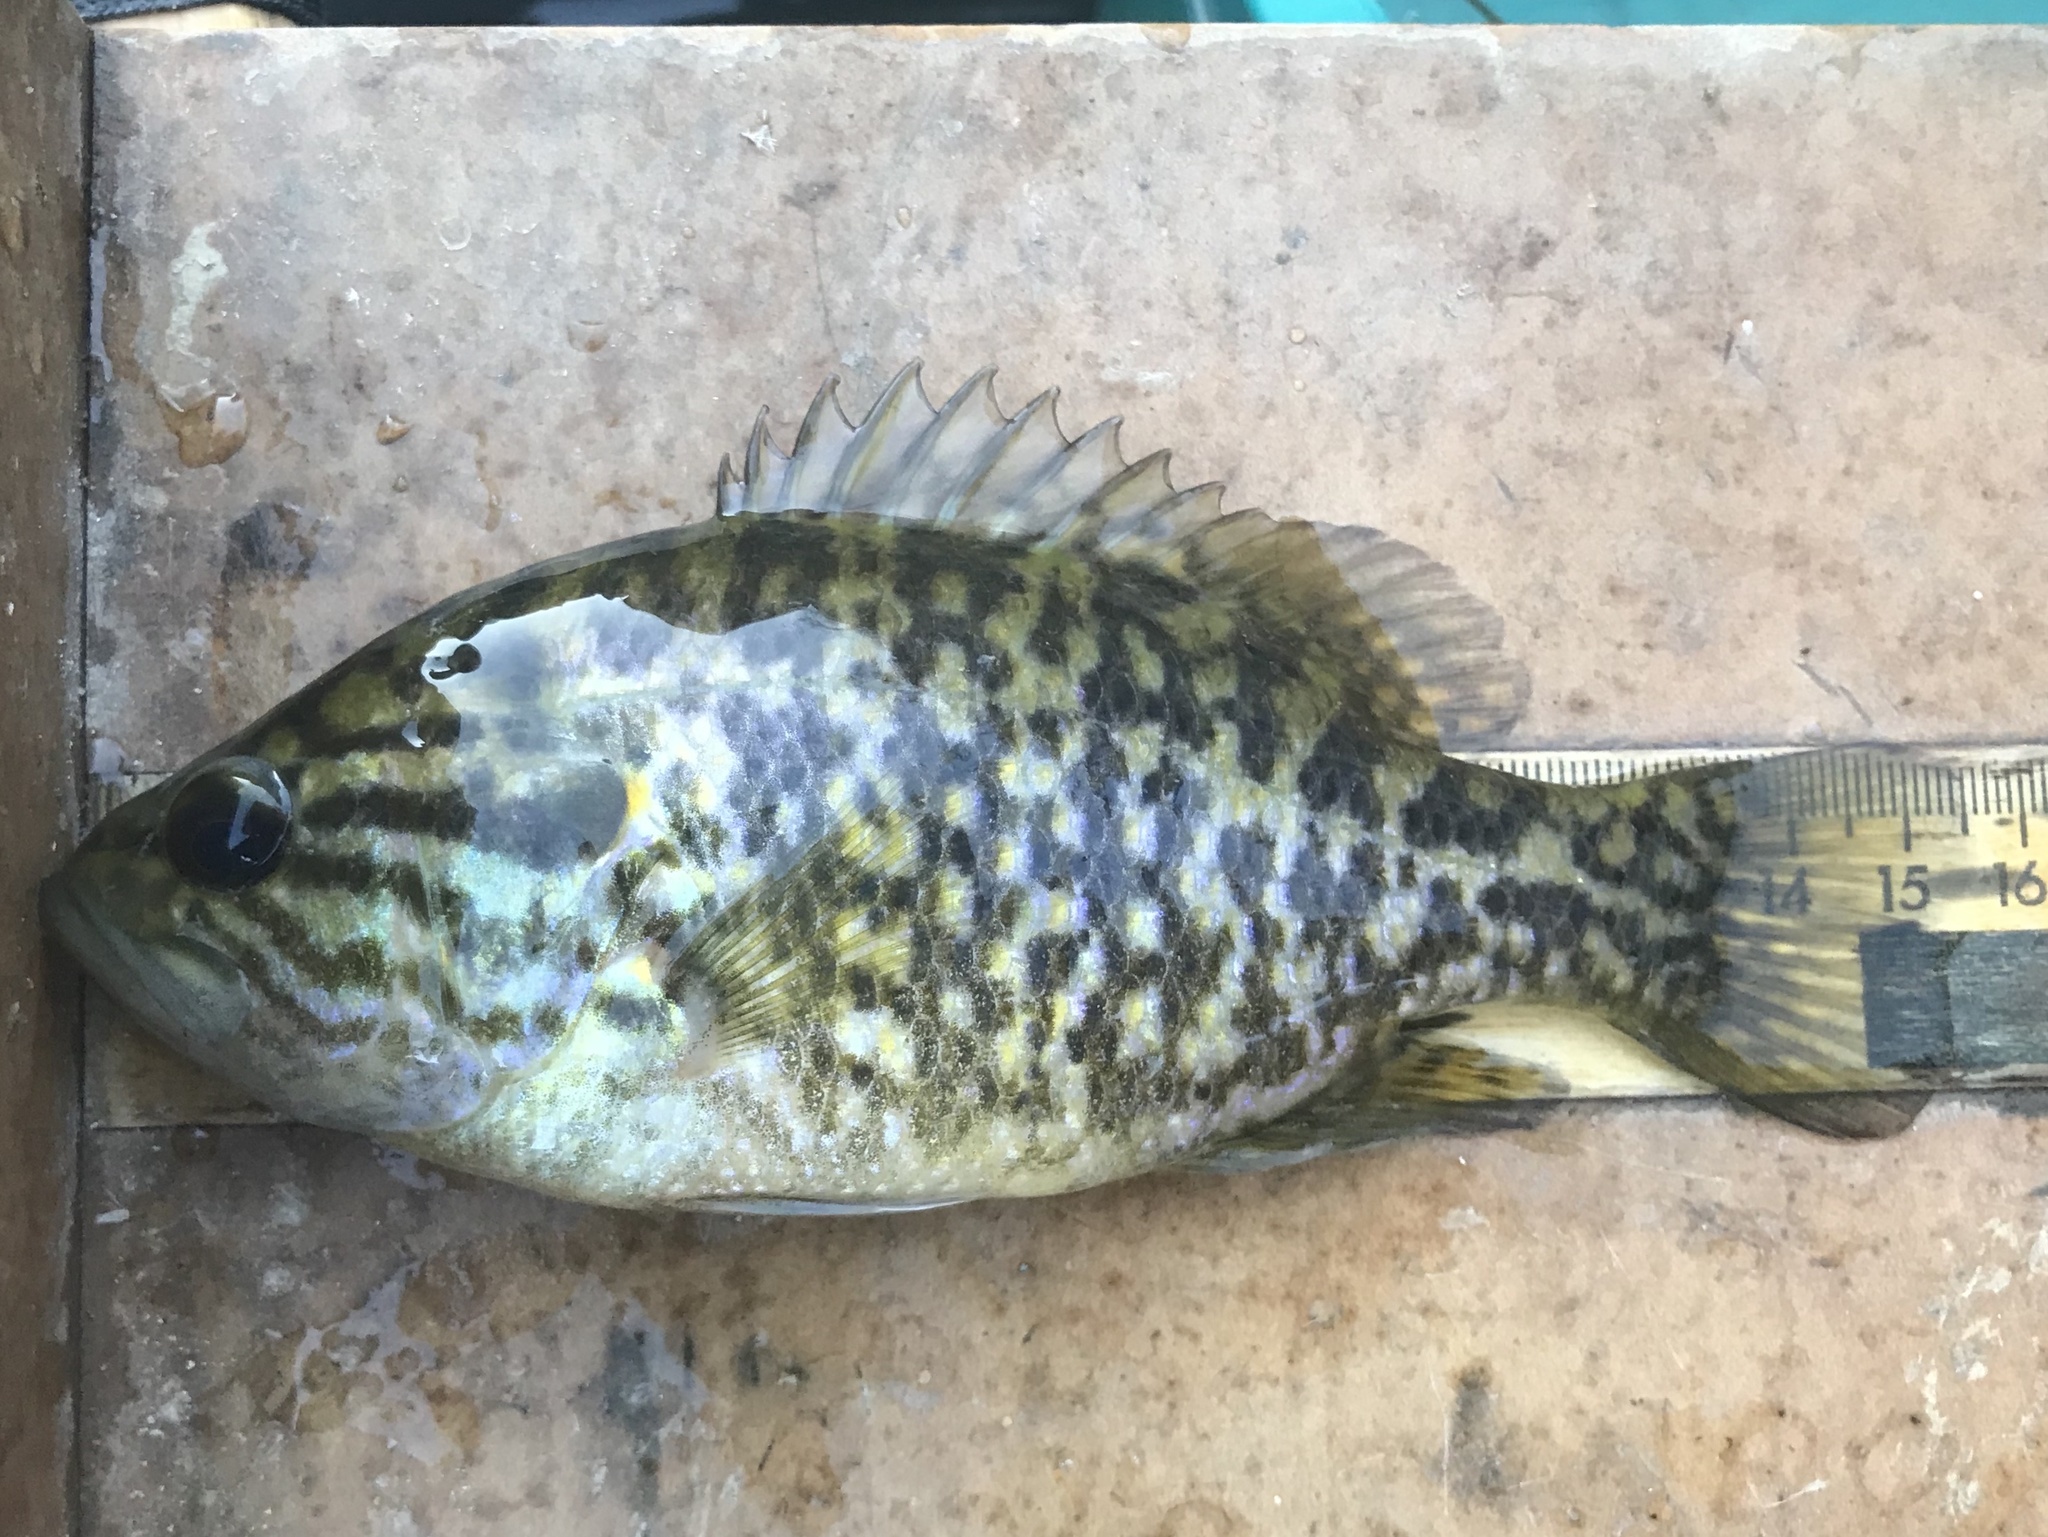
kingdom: Animalia
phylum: Chordata
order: Perciformes
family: Centrarchidae
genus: Lepomis
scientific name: Lepomis gulosus
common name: Warmouth
